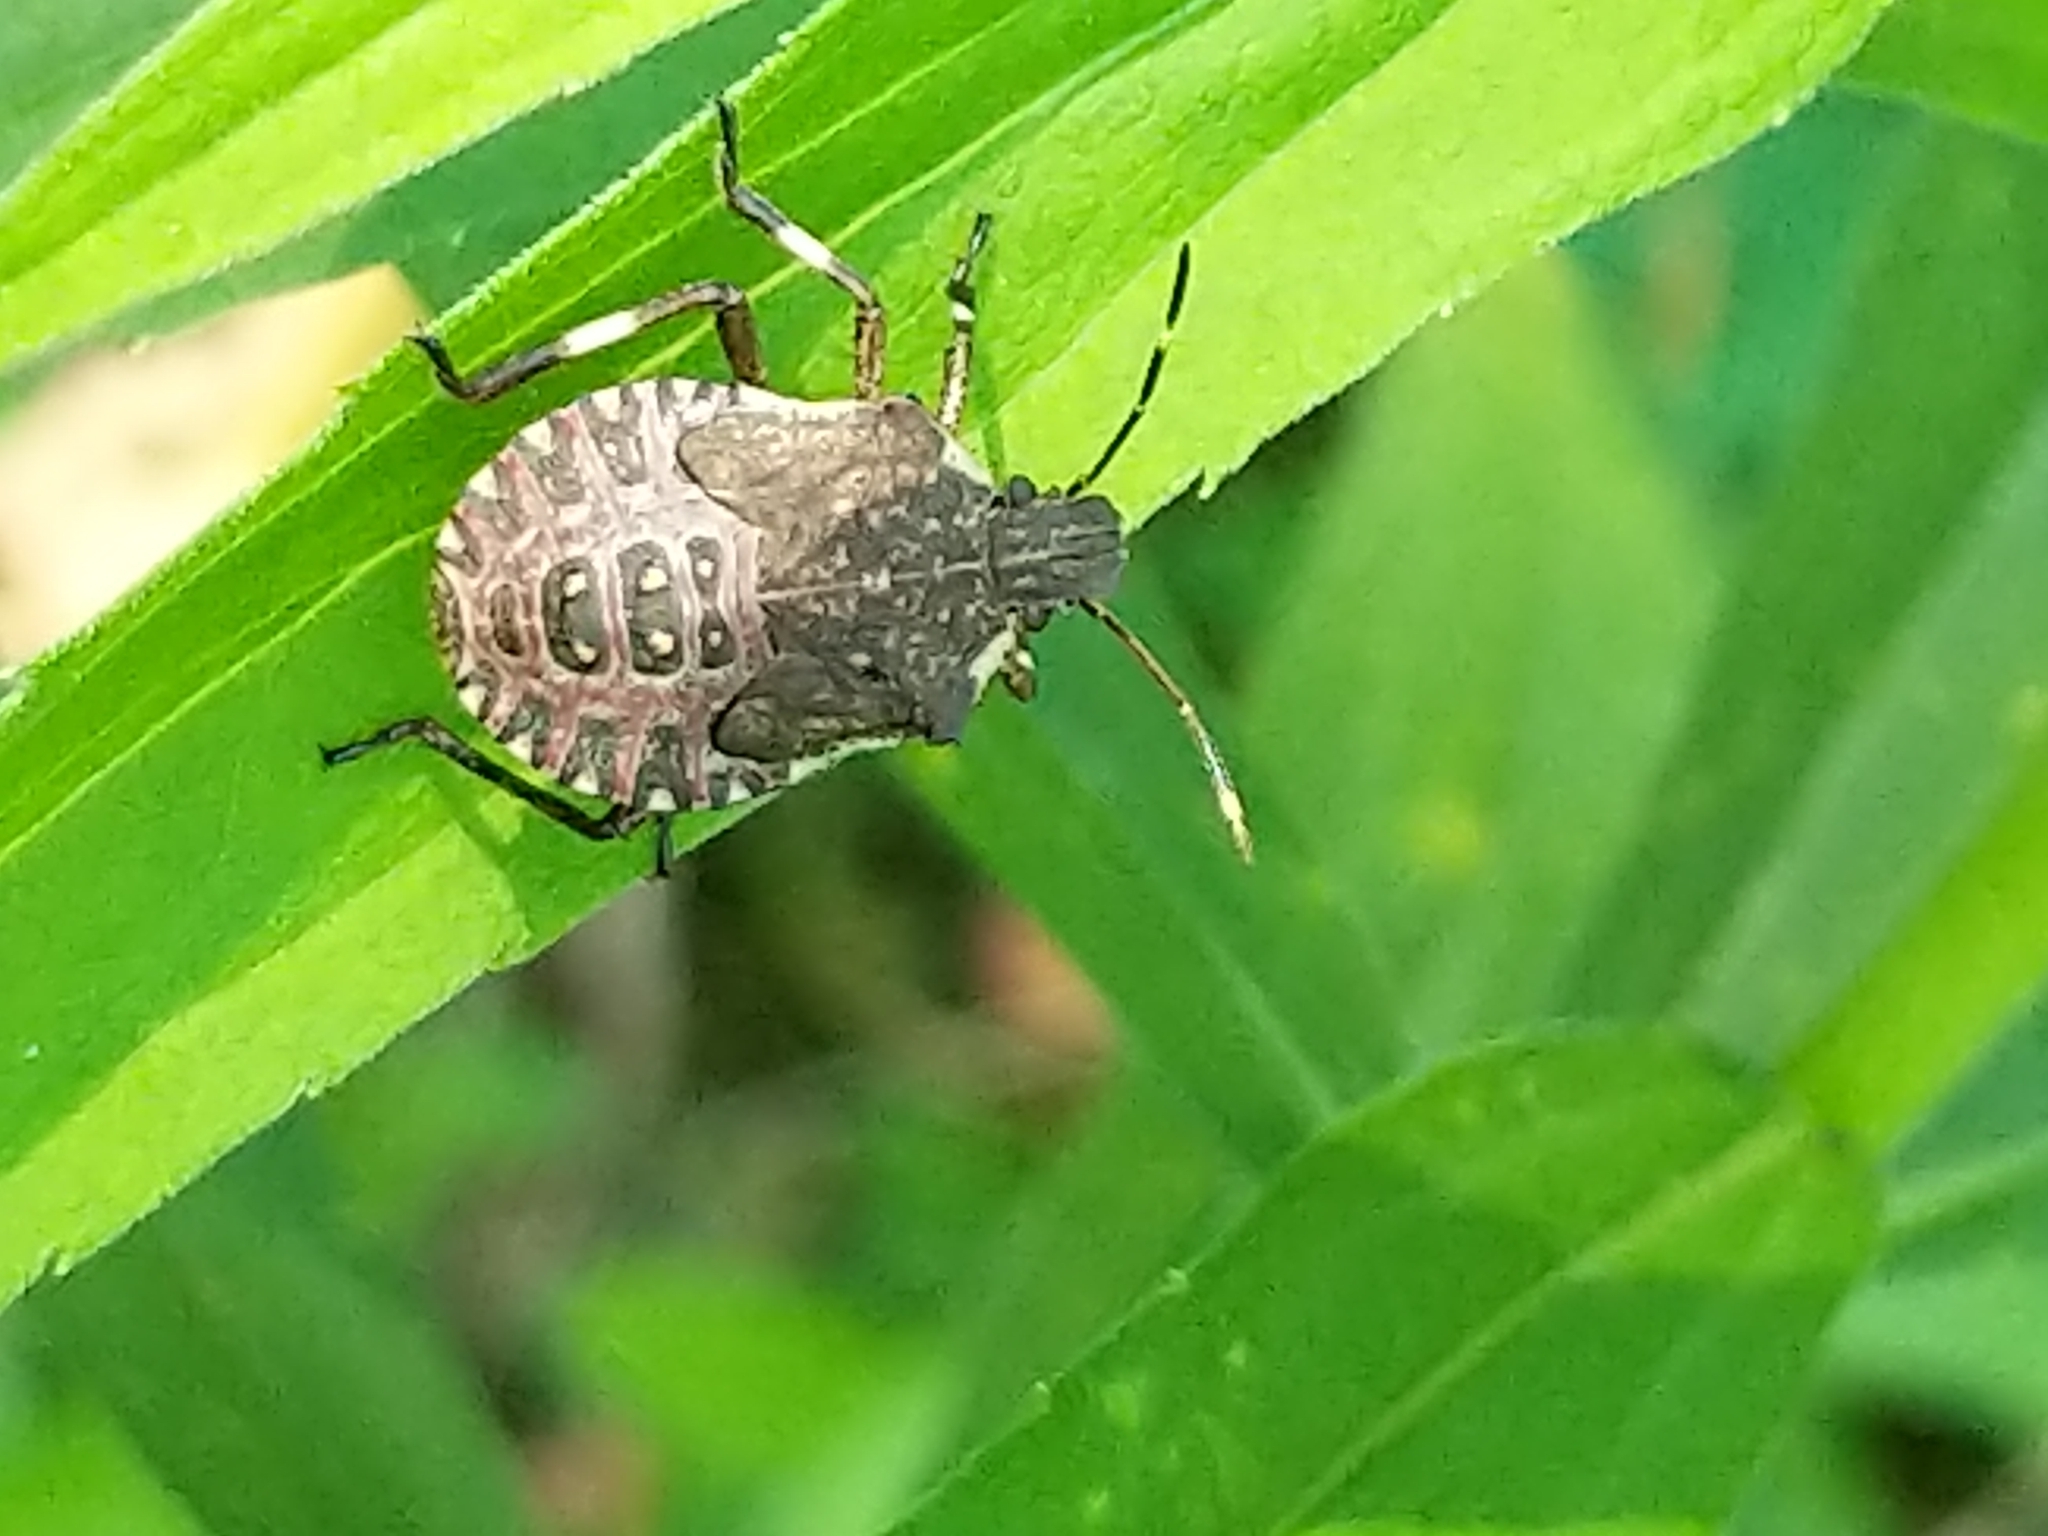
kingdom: Animalia
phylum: Arthropoda
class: Insecta
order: Hemiptera
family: Pentatomidae
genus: Halyomorpha
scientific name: Halyomorpha halys
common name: Brown marmorated stink bug
